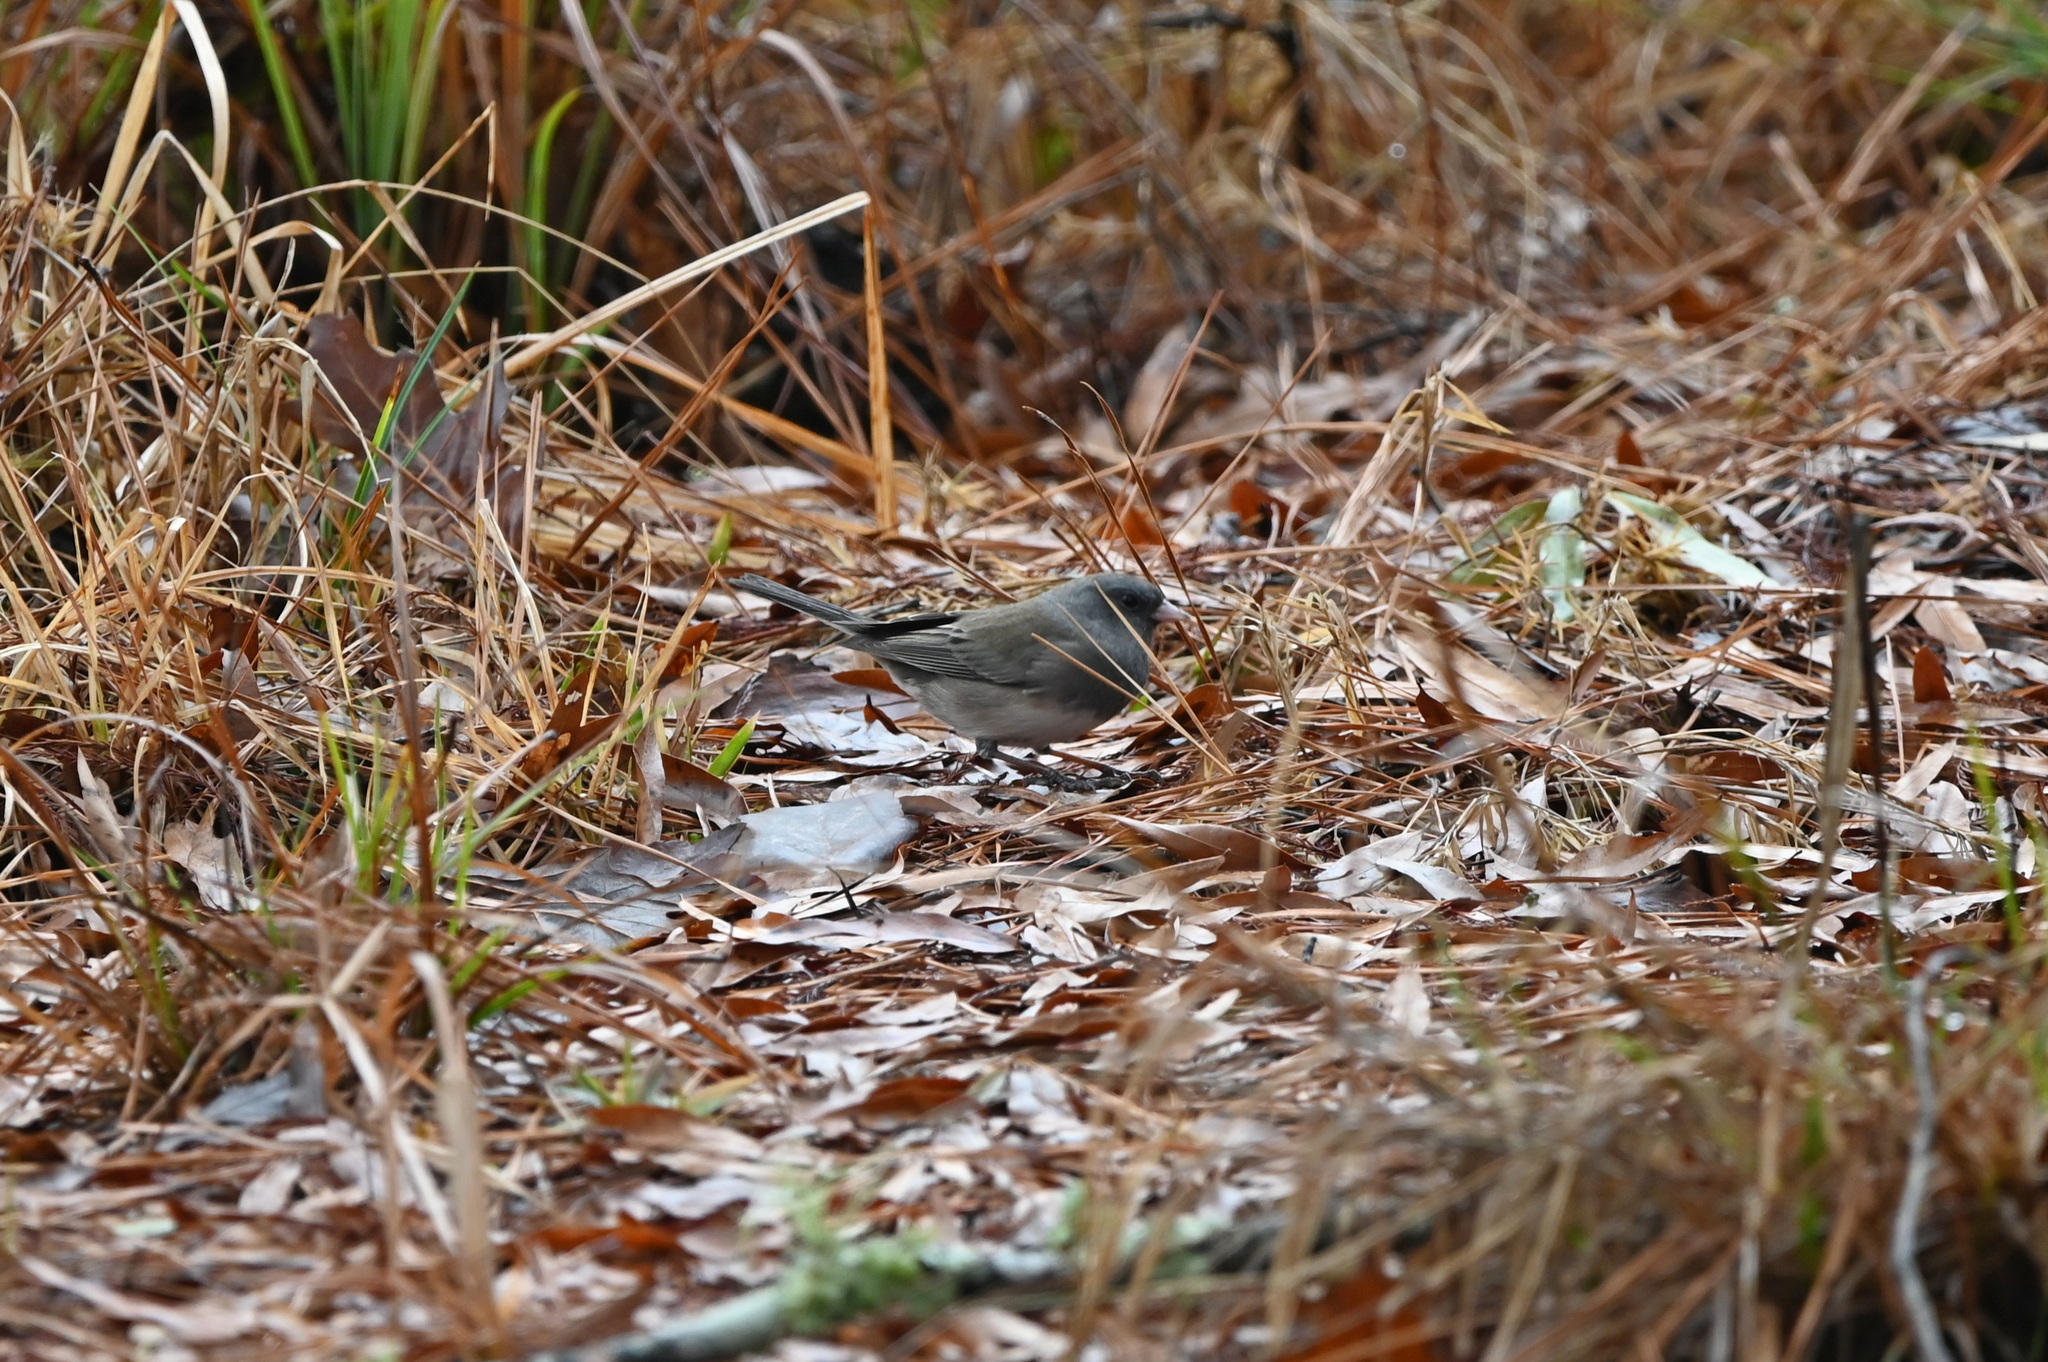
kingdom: Animalia
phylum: Chordata
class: Aves
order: Passeriformes
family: Passerellidae
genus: Junco
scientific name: Junco hyemalis
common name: Dark-eyed junco
